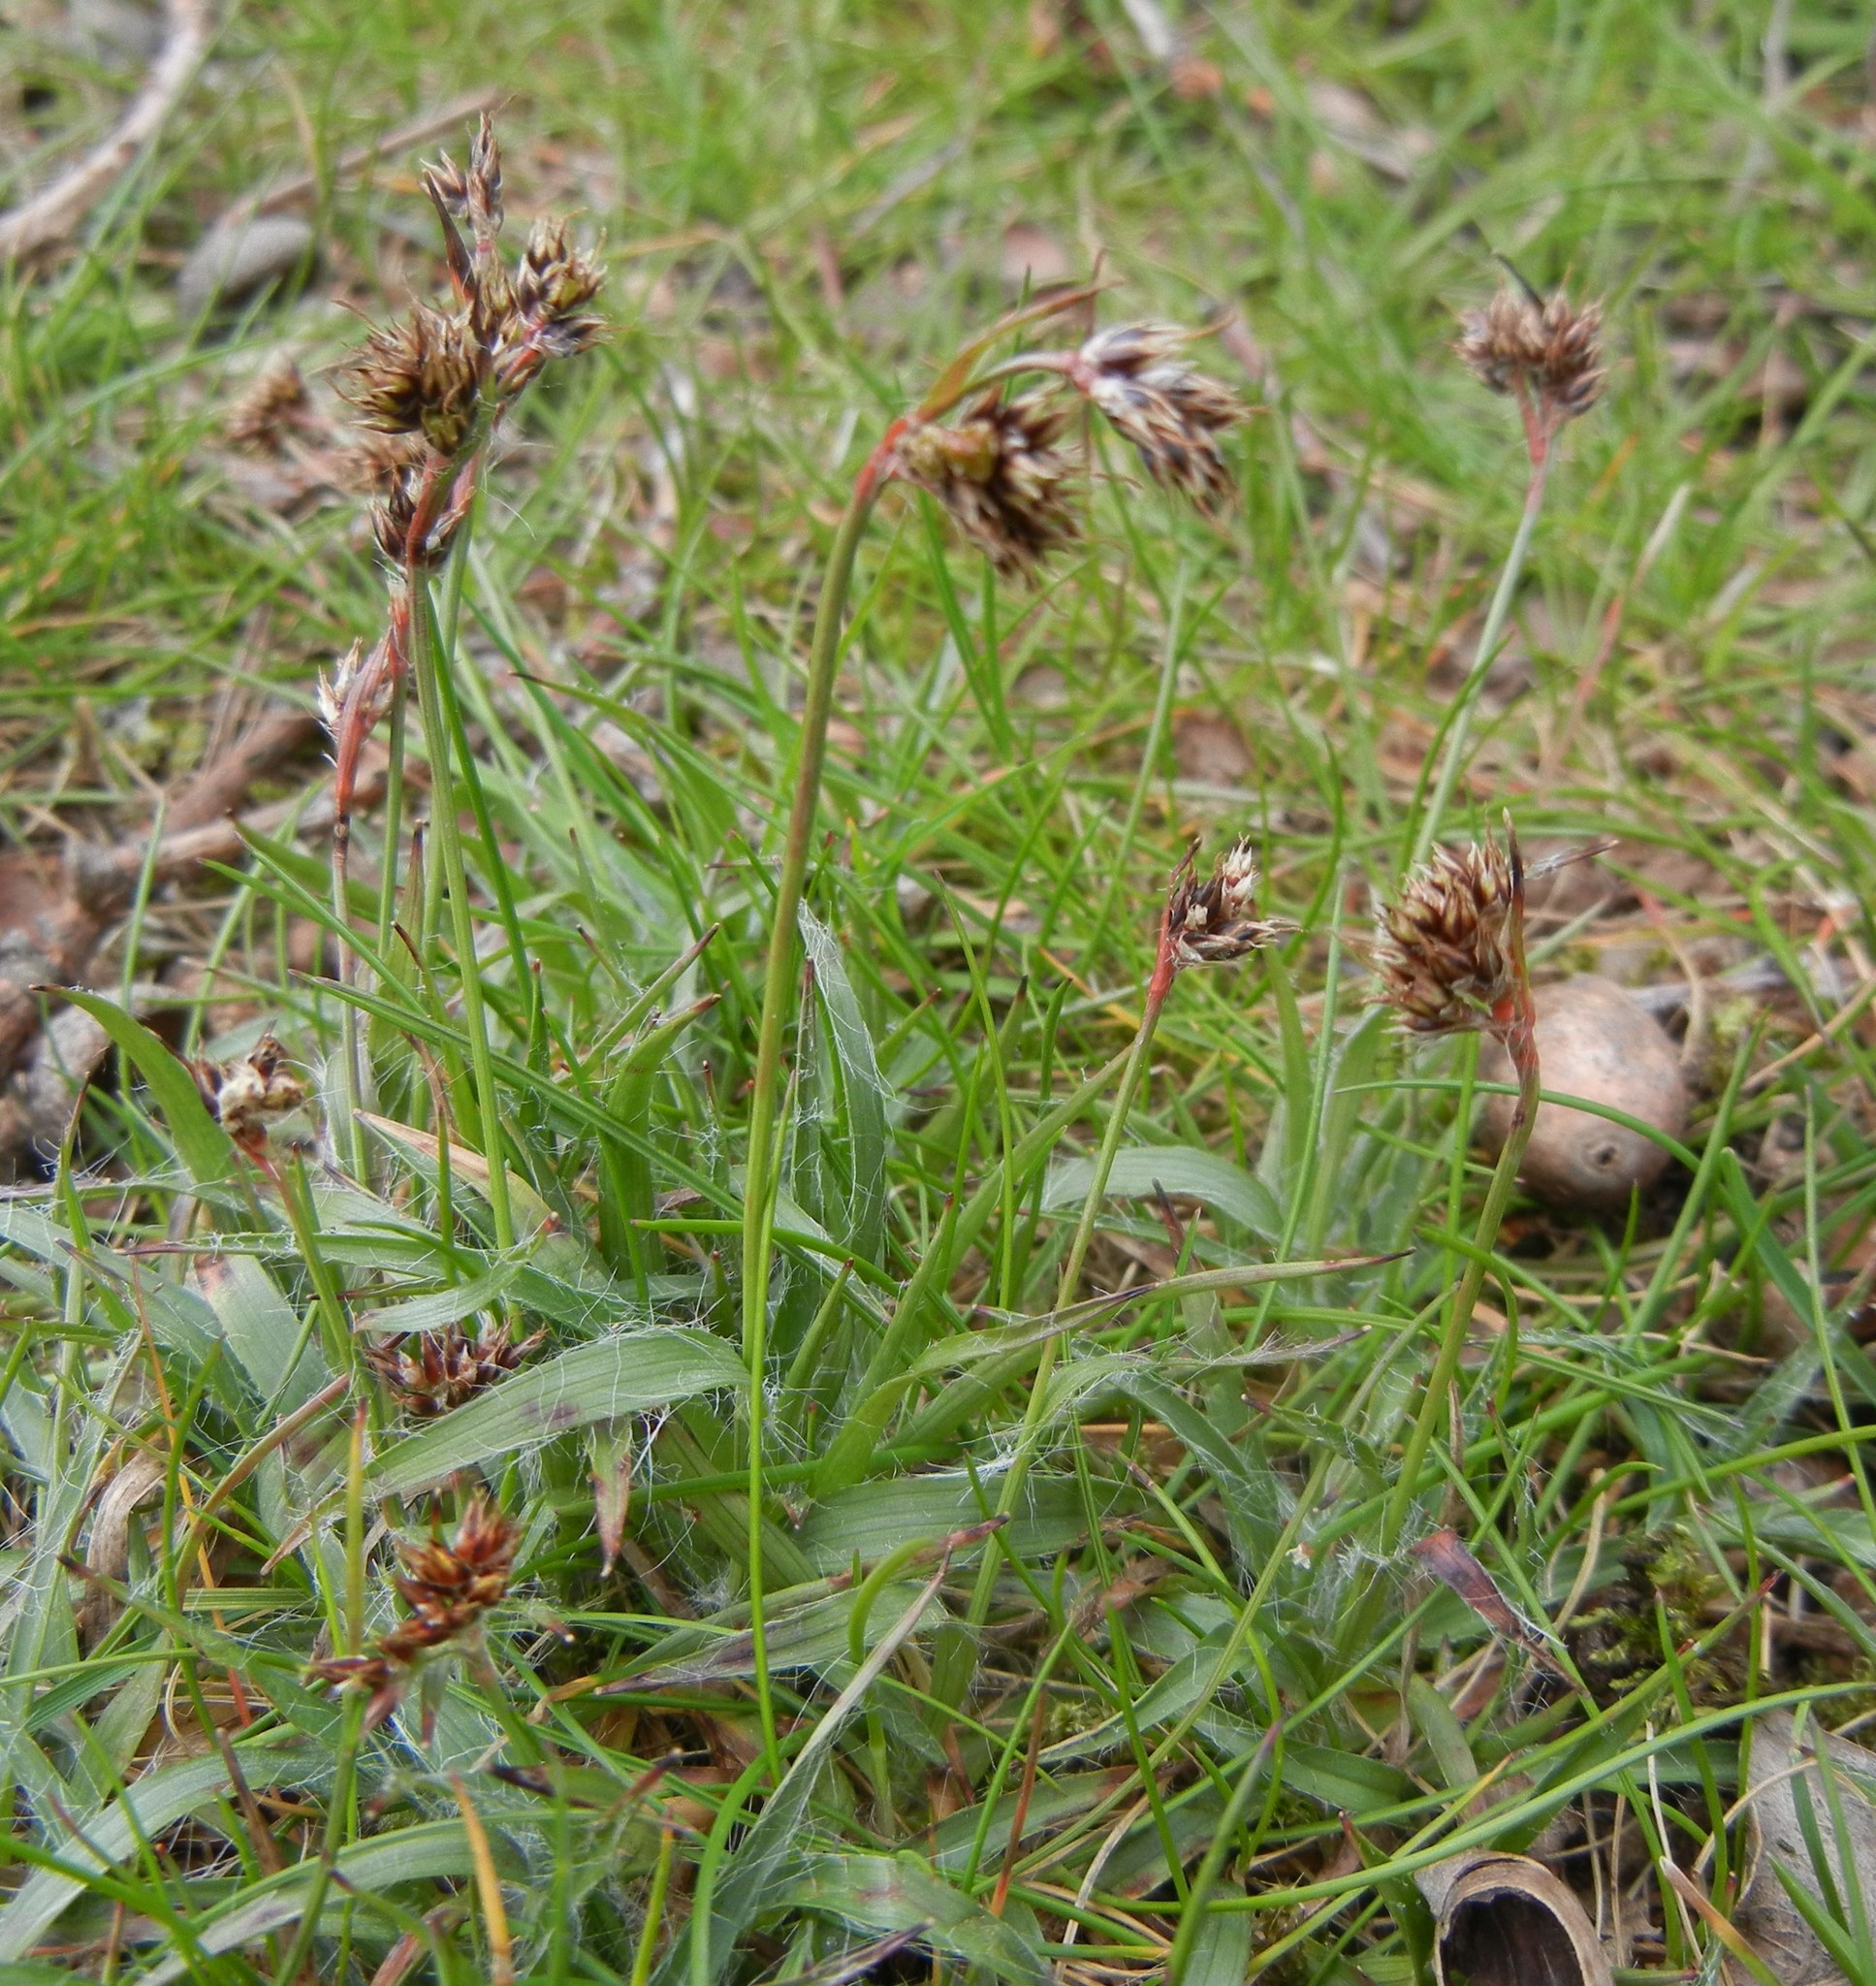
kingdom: Plantae
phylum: Tracheophyta
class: Liliopsida
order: Poales
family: Juncaceae
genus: Luzula
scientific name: Luzula campestris
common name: Field wood-rush
